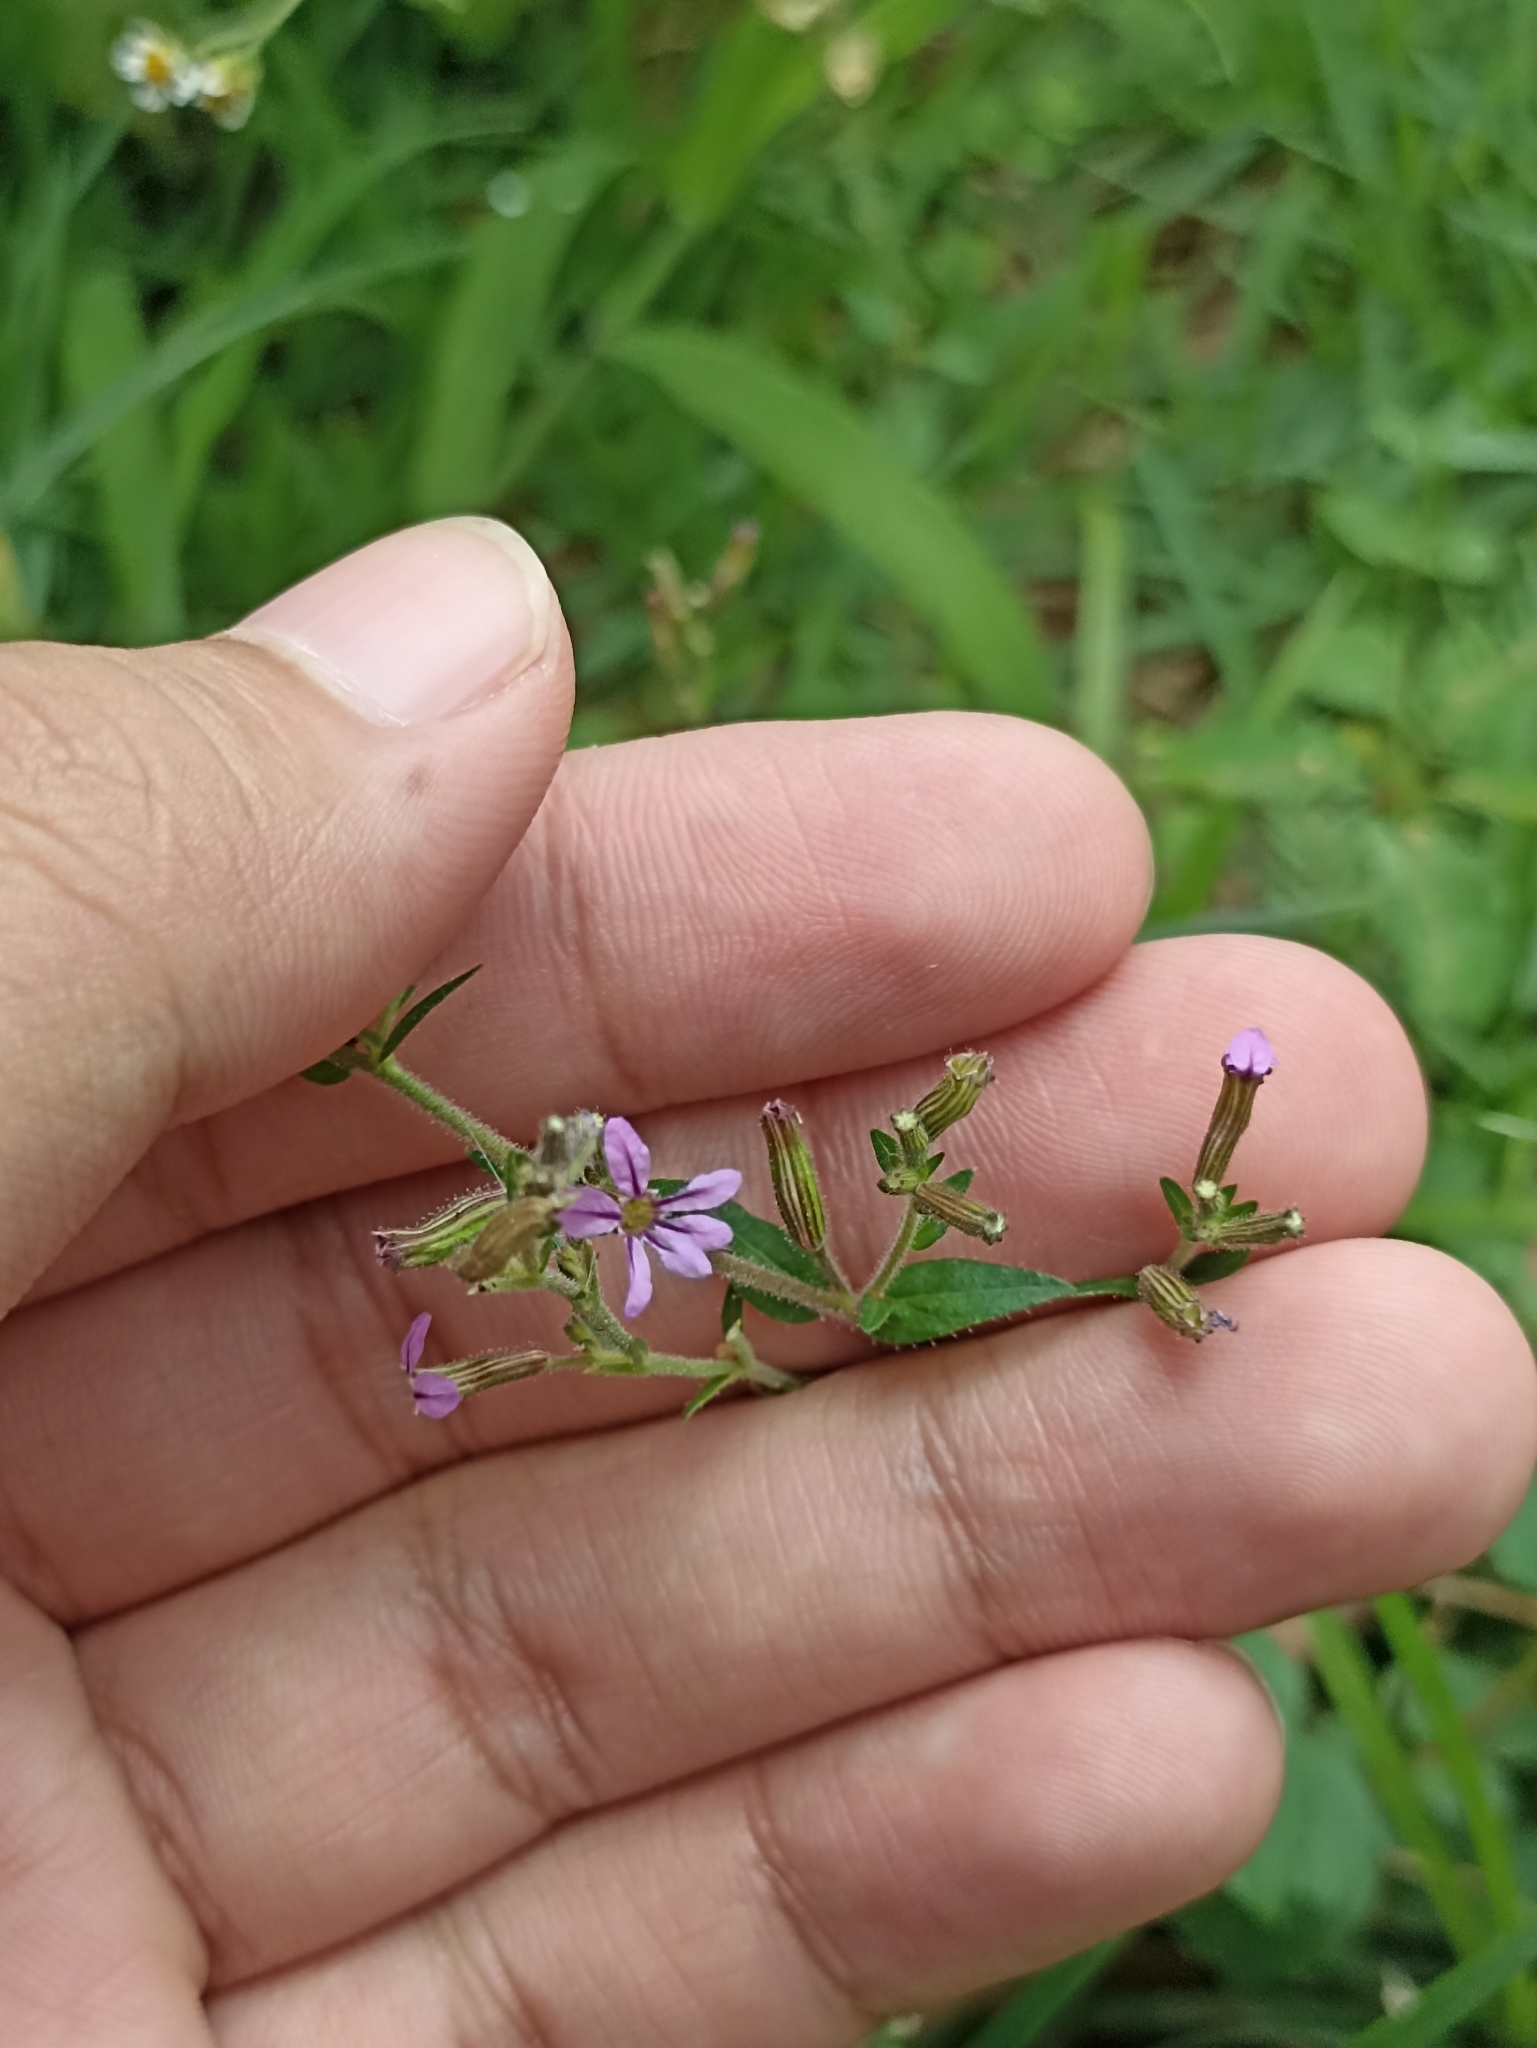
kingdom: Plantae
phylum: Tracheophyta
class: Magnoliopsida
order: Myrtales
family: Lythraceae
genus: Cuphea
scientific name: Cuphea calophylla
